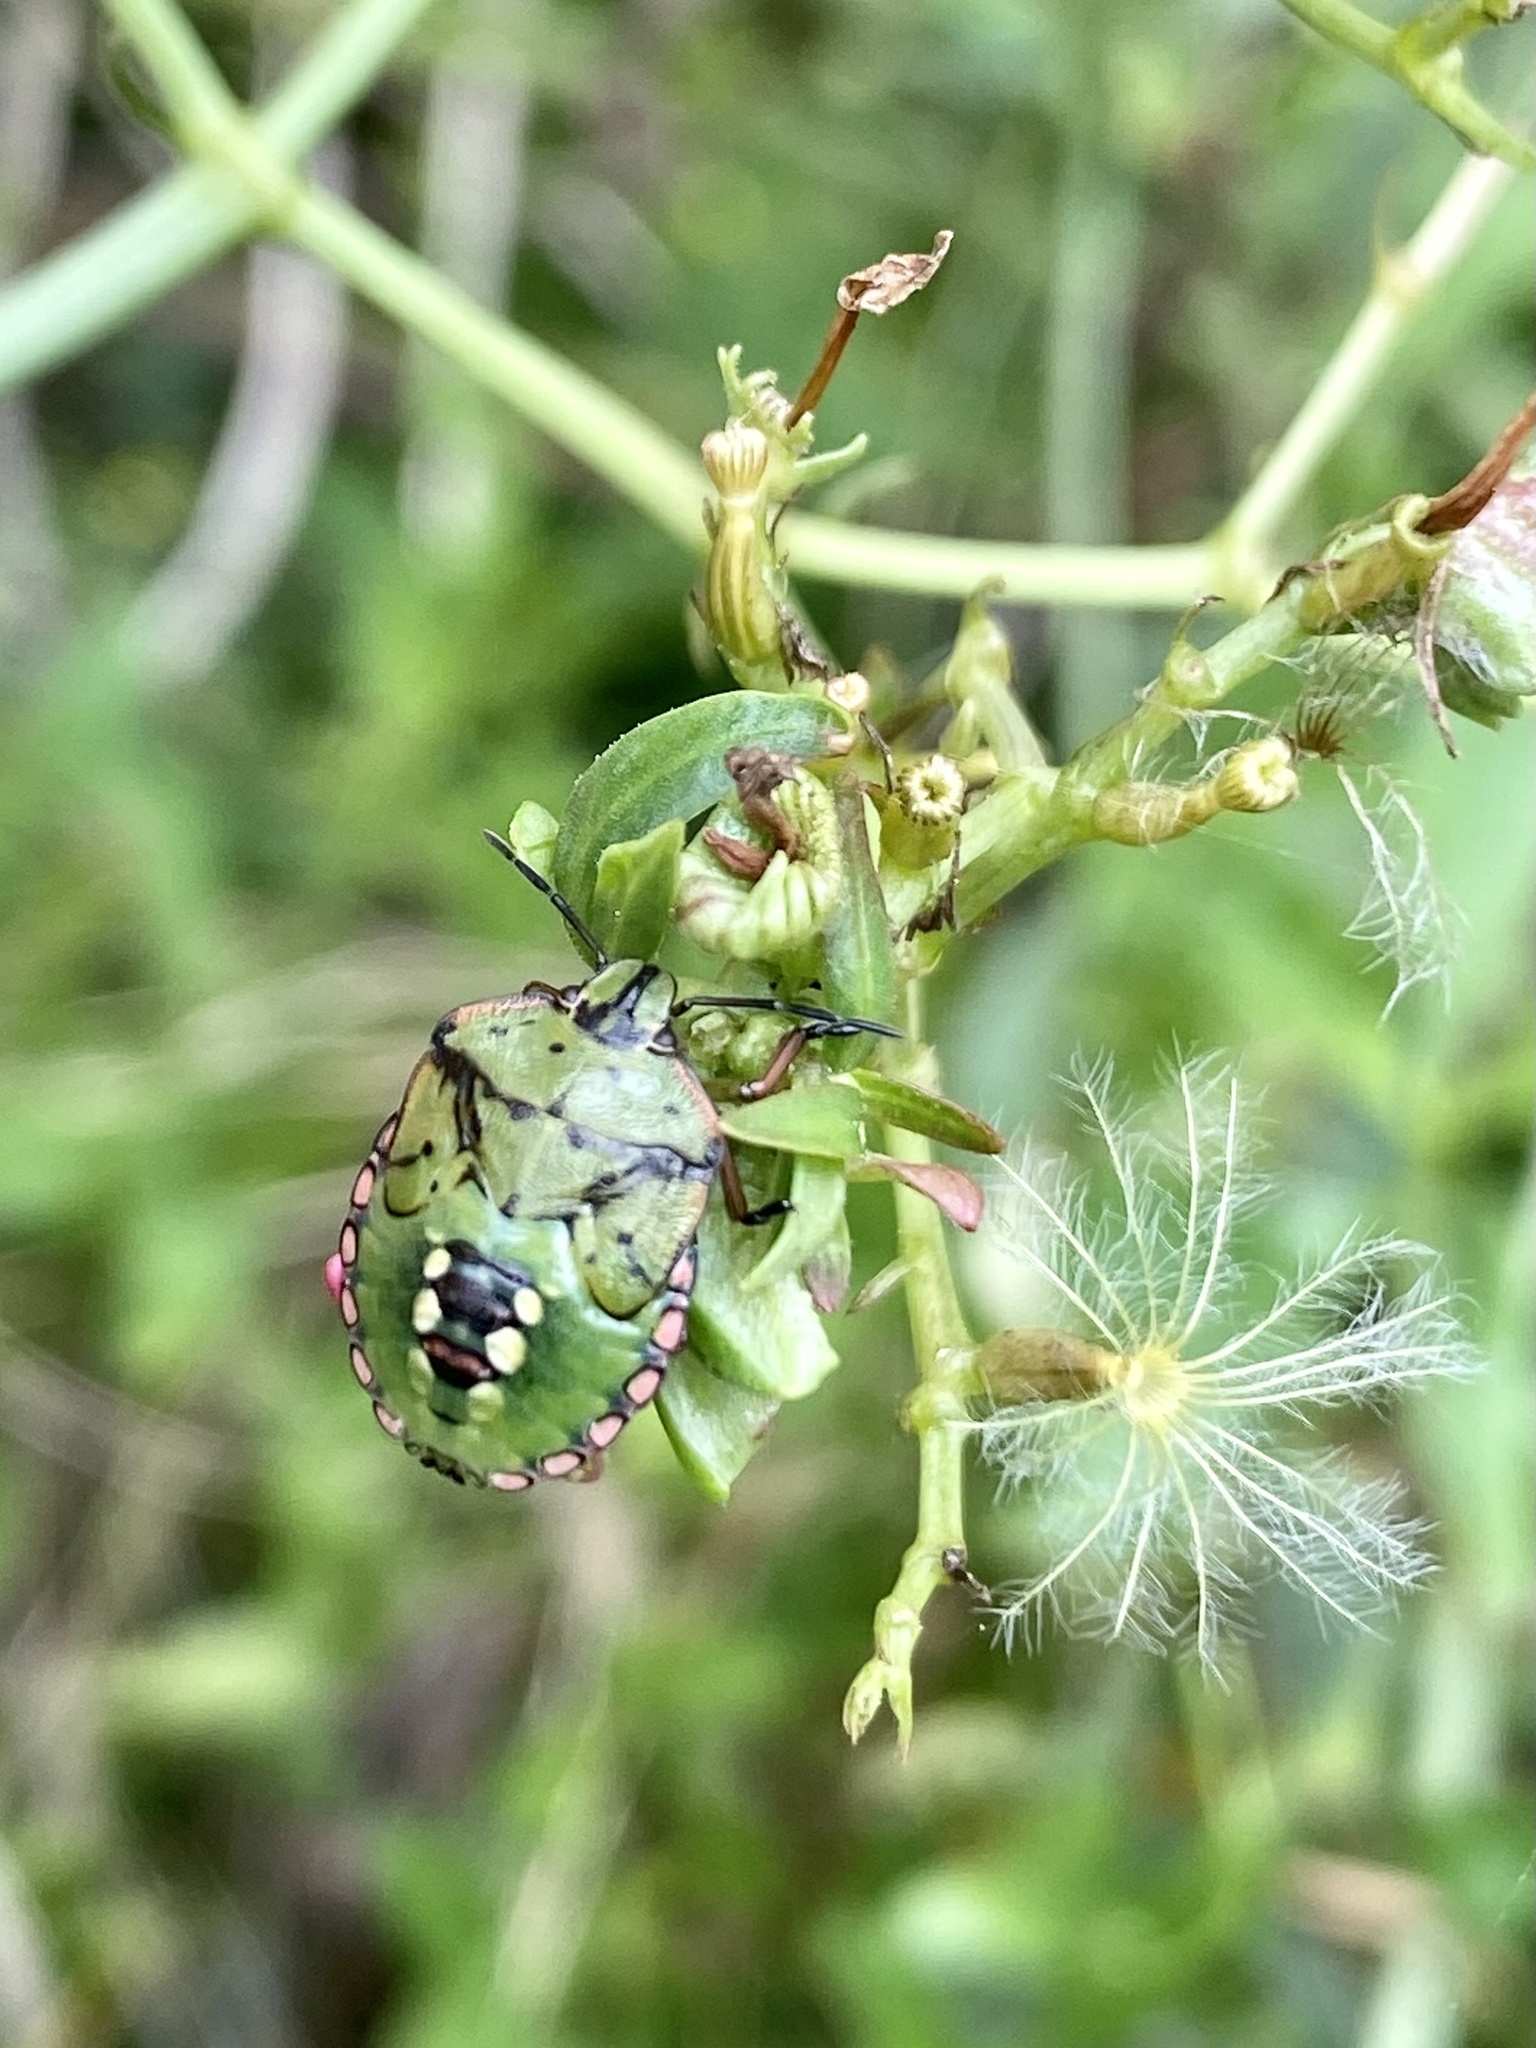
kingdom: Animalia
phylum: Arthropoda
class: Insecta
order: Hemiptera
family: Pentatomidae
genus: Nezara
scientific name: Nezara viridula
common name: Southern green stink bug
